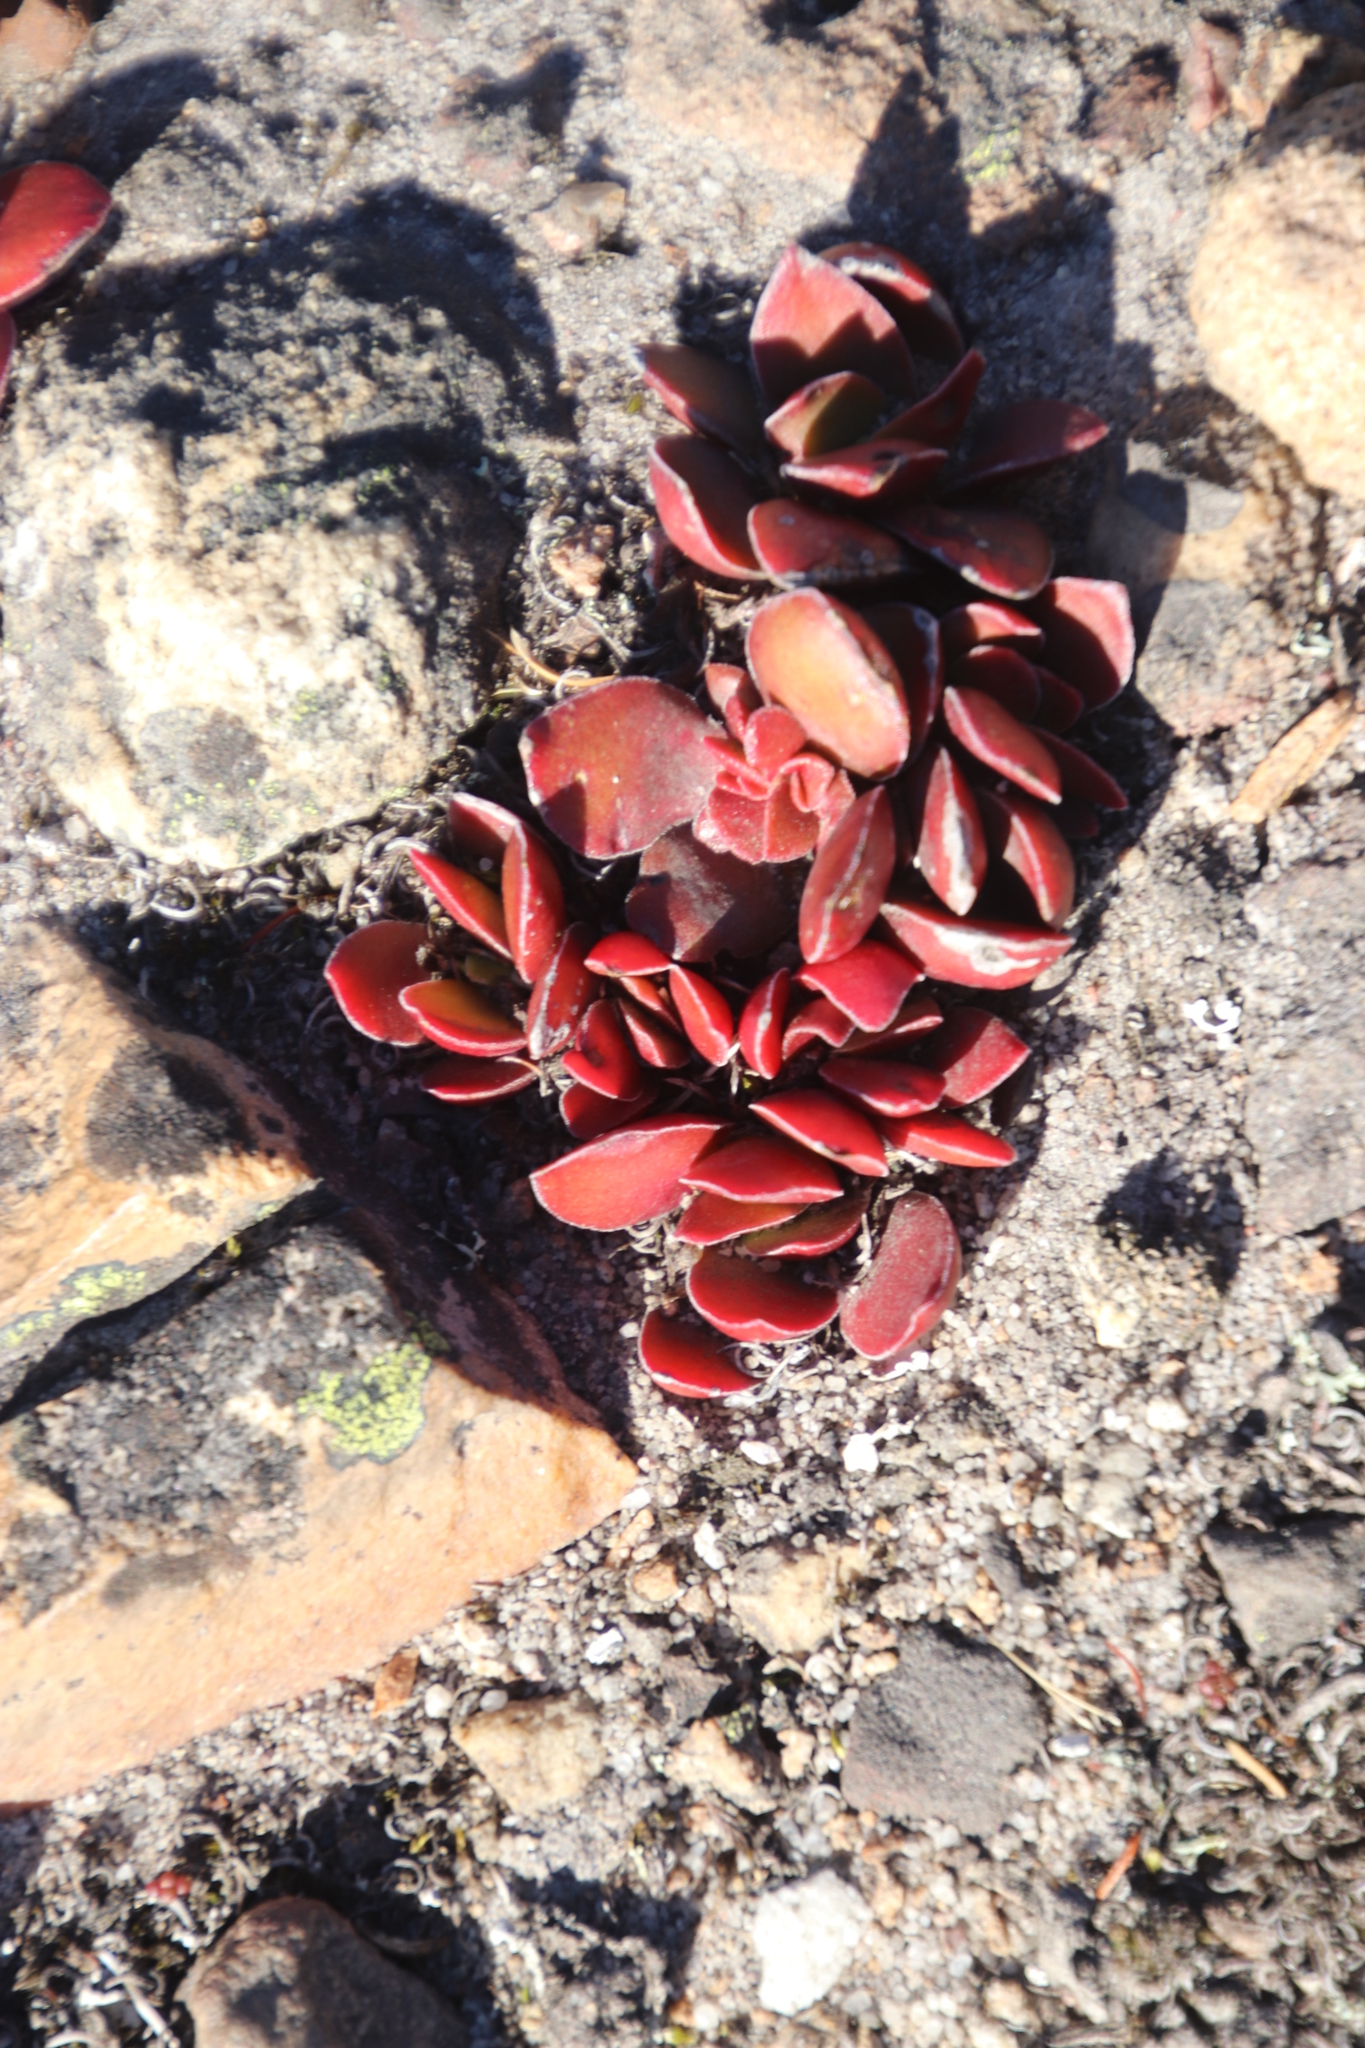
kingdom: Plantae
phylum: Tracheophyta
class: Magnoliopsida
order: Saxifragales
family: Crassulaceae
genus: Crassula
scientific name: Crassula nudicaulis
